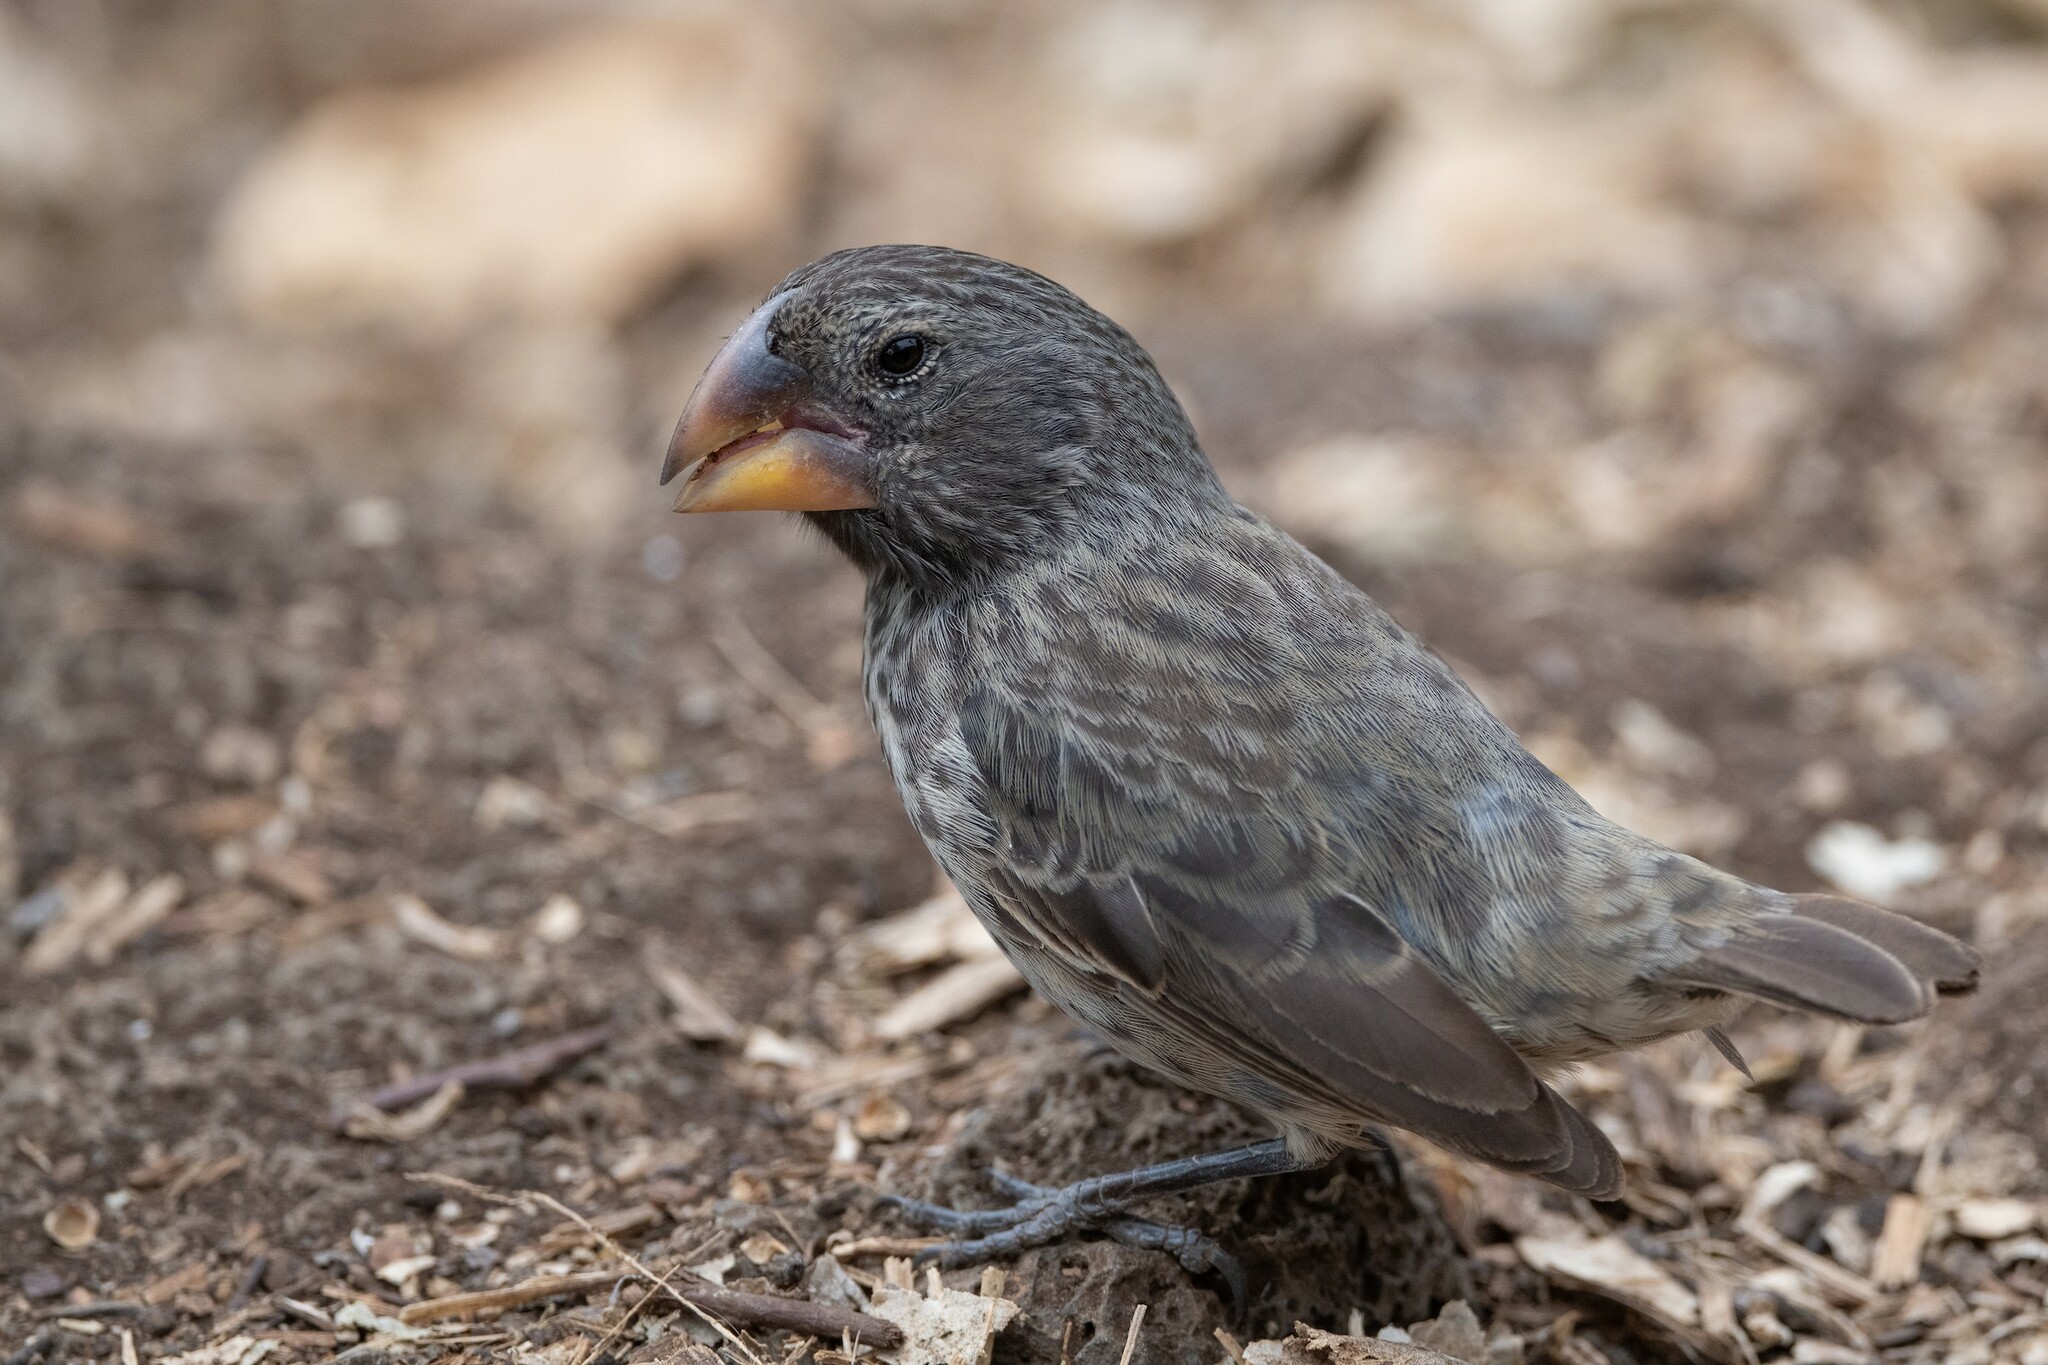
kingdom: Animalia
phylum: Chordata
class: Aves
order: Passeriformes
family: Thraupidae
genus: Geospiza
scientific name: Geospiza magnirostris
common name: Large ground-finch
